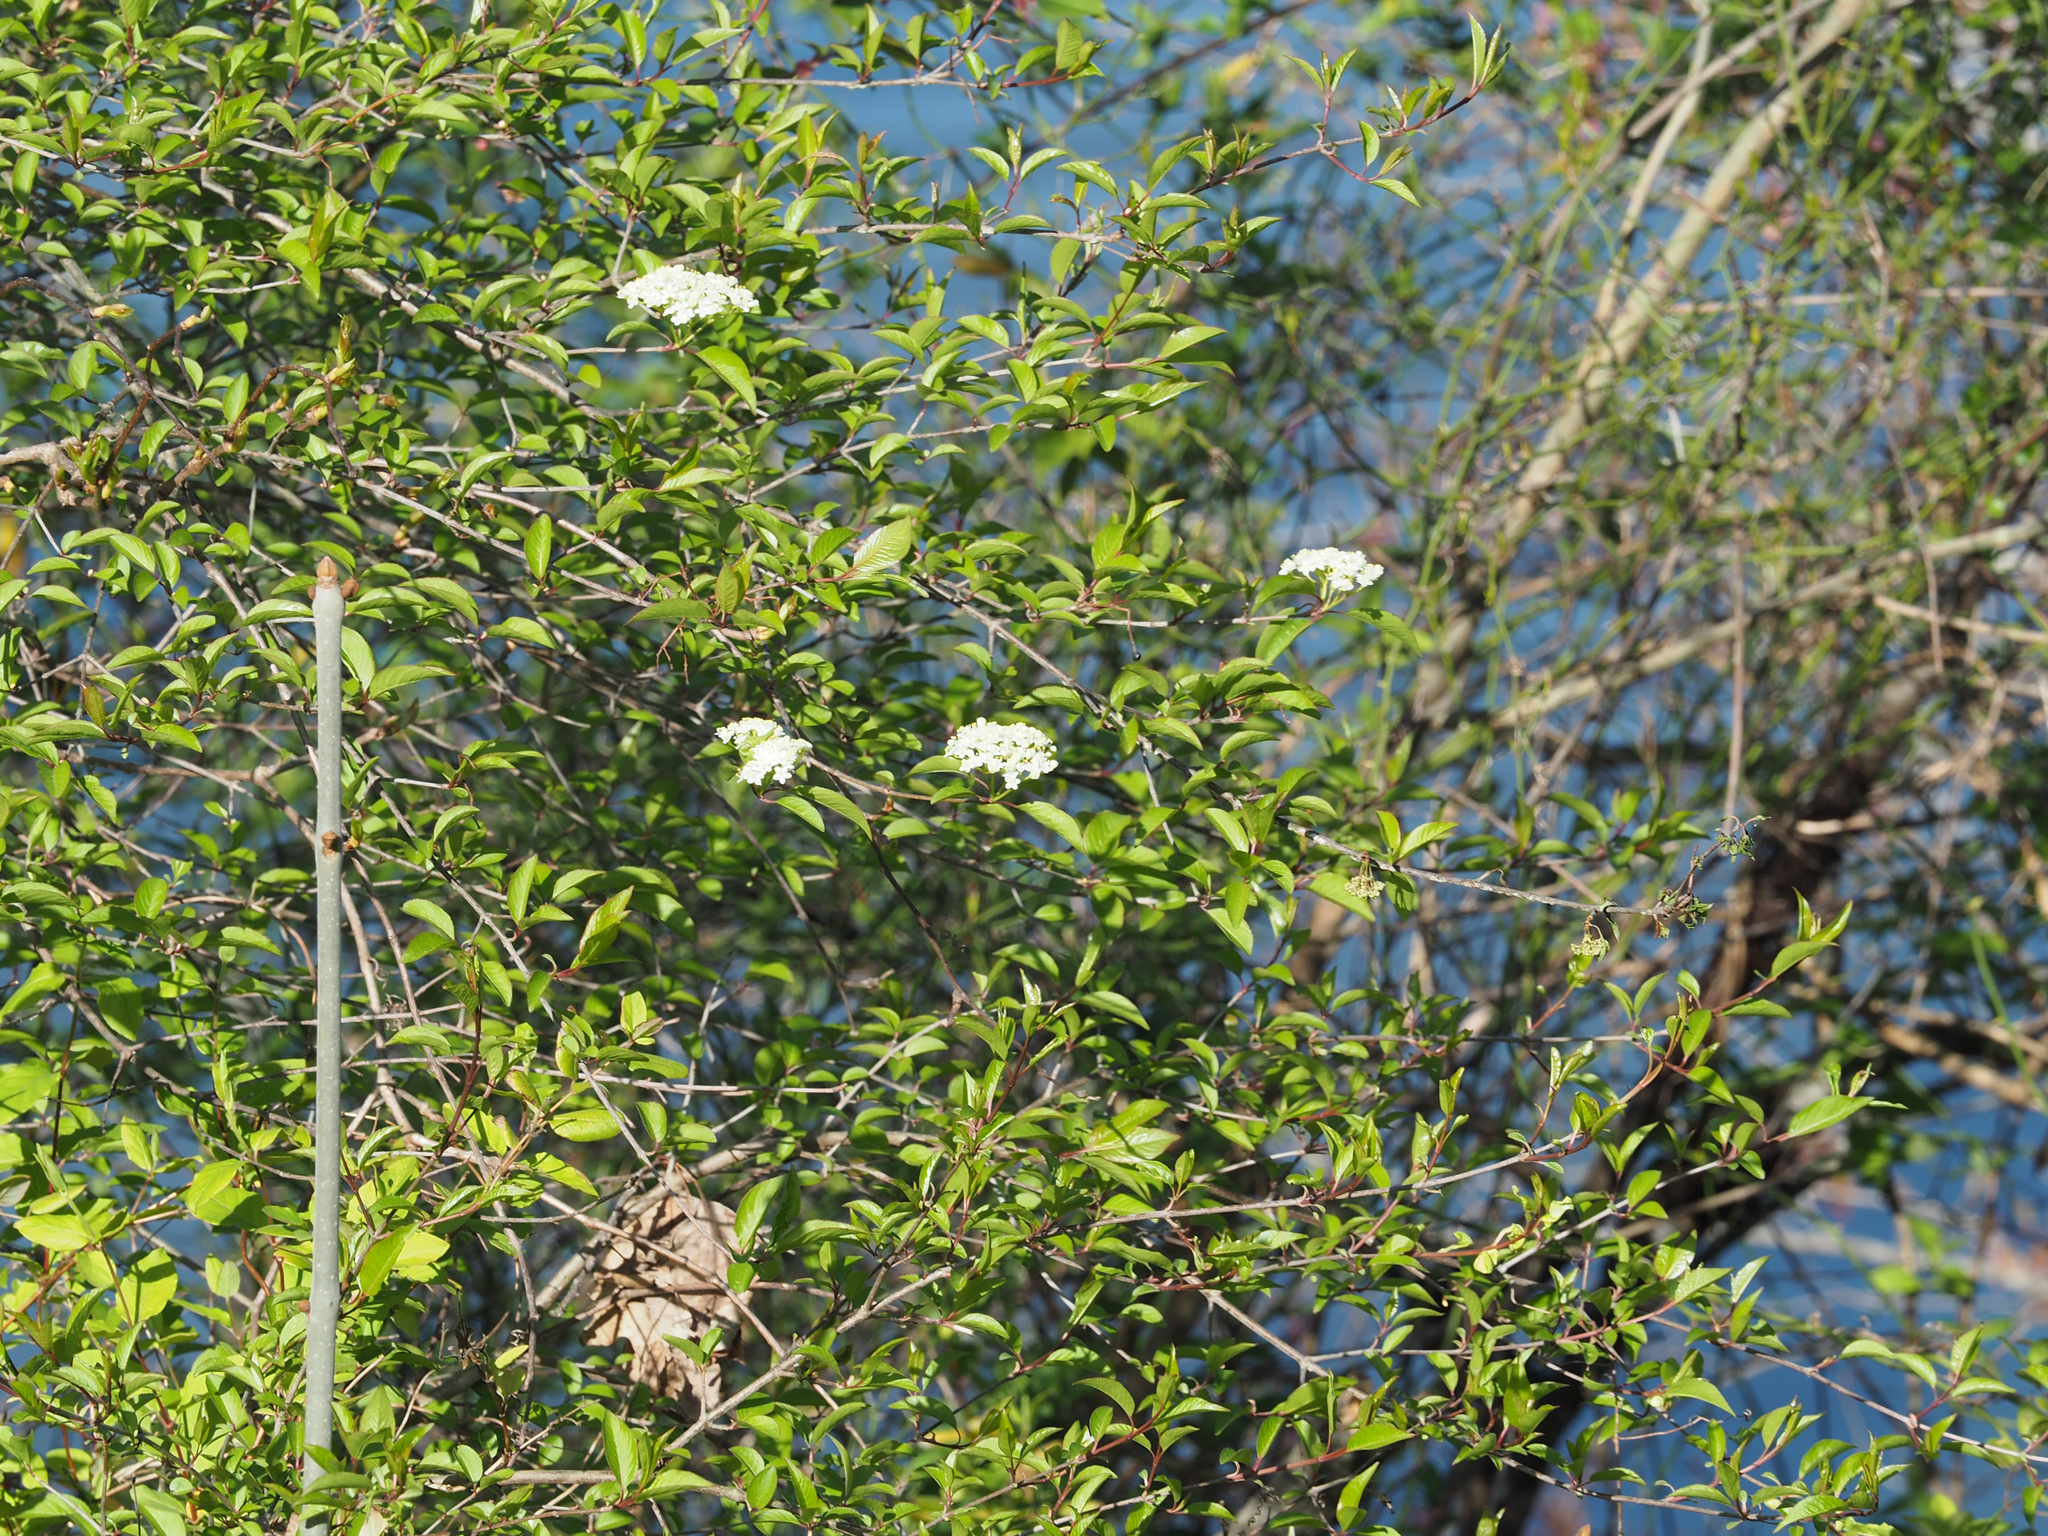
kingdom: Plantae
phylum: Tracheophyta
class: Magnoliopsida
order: Dipsacales
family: Viburnaceae
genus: Viburnum
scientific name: Viburnum prunifolium
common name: Black haw
